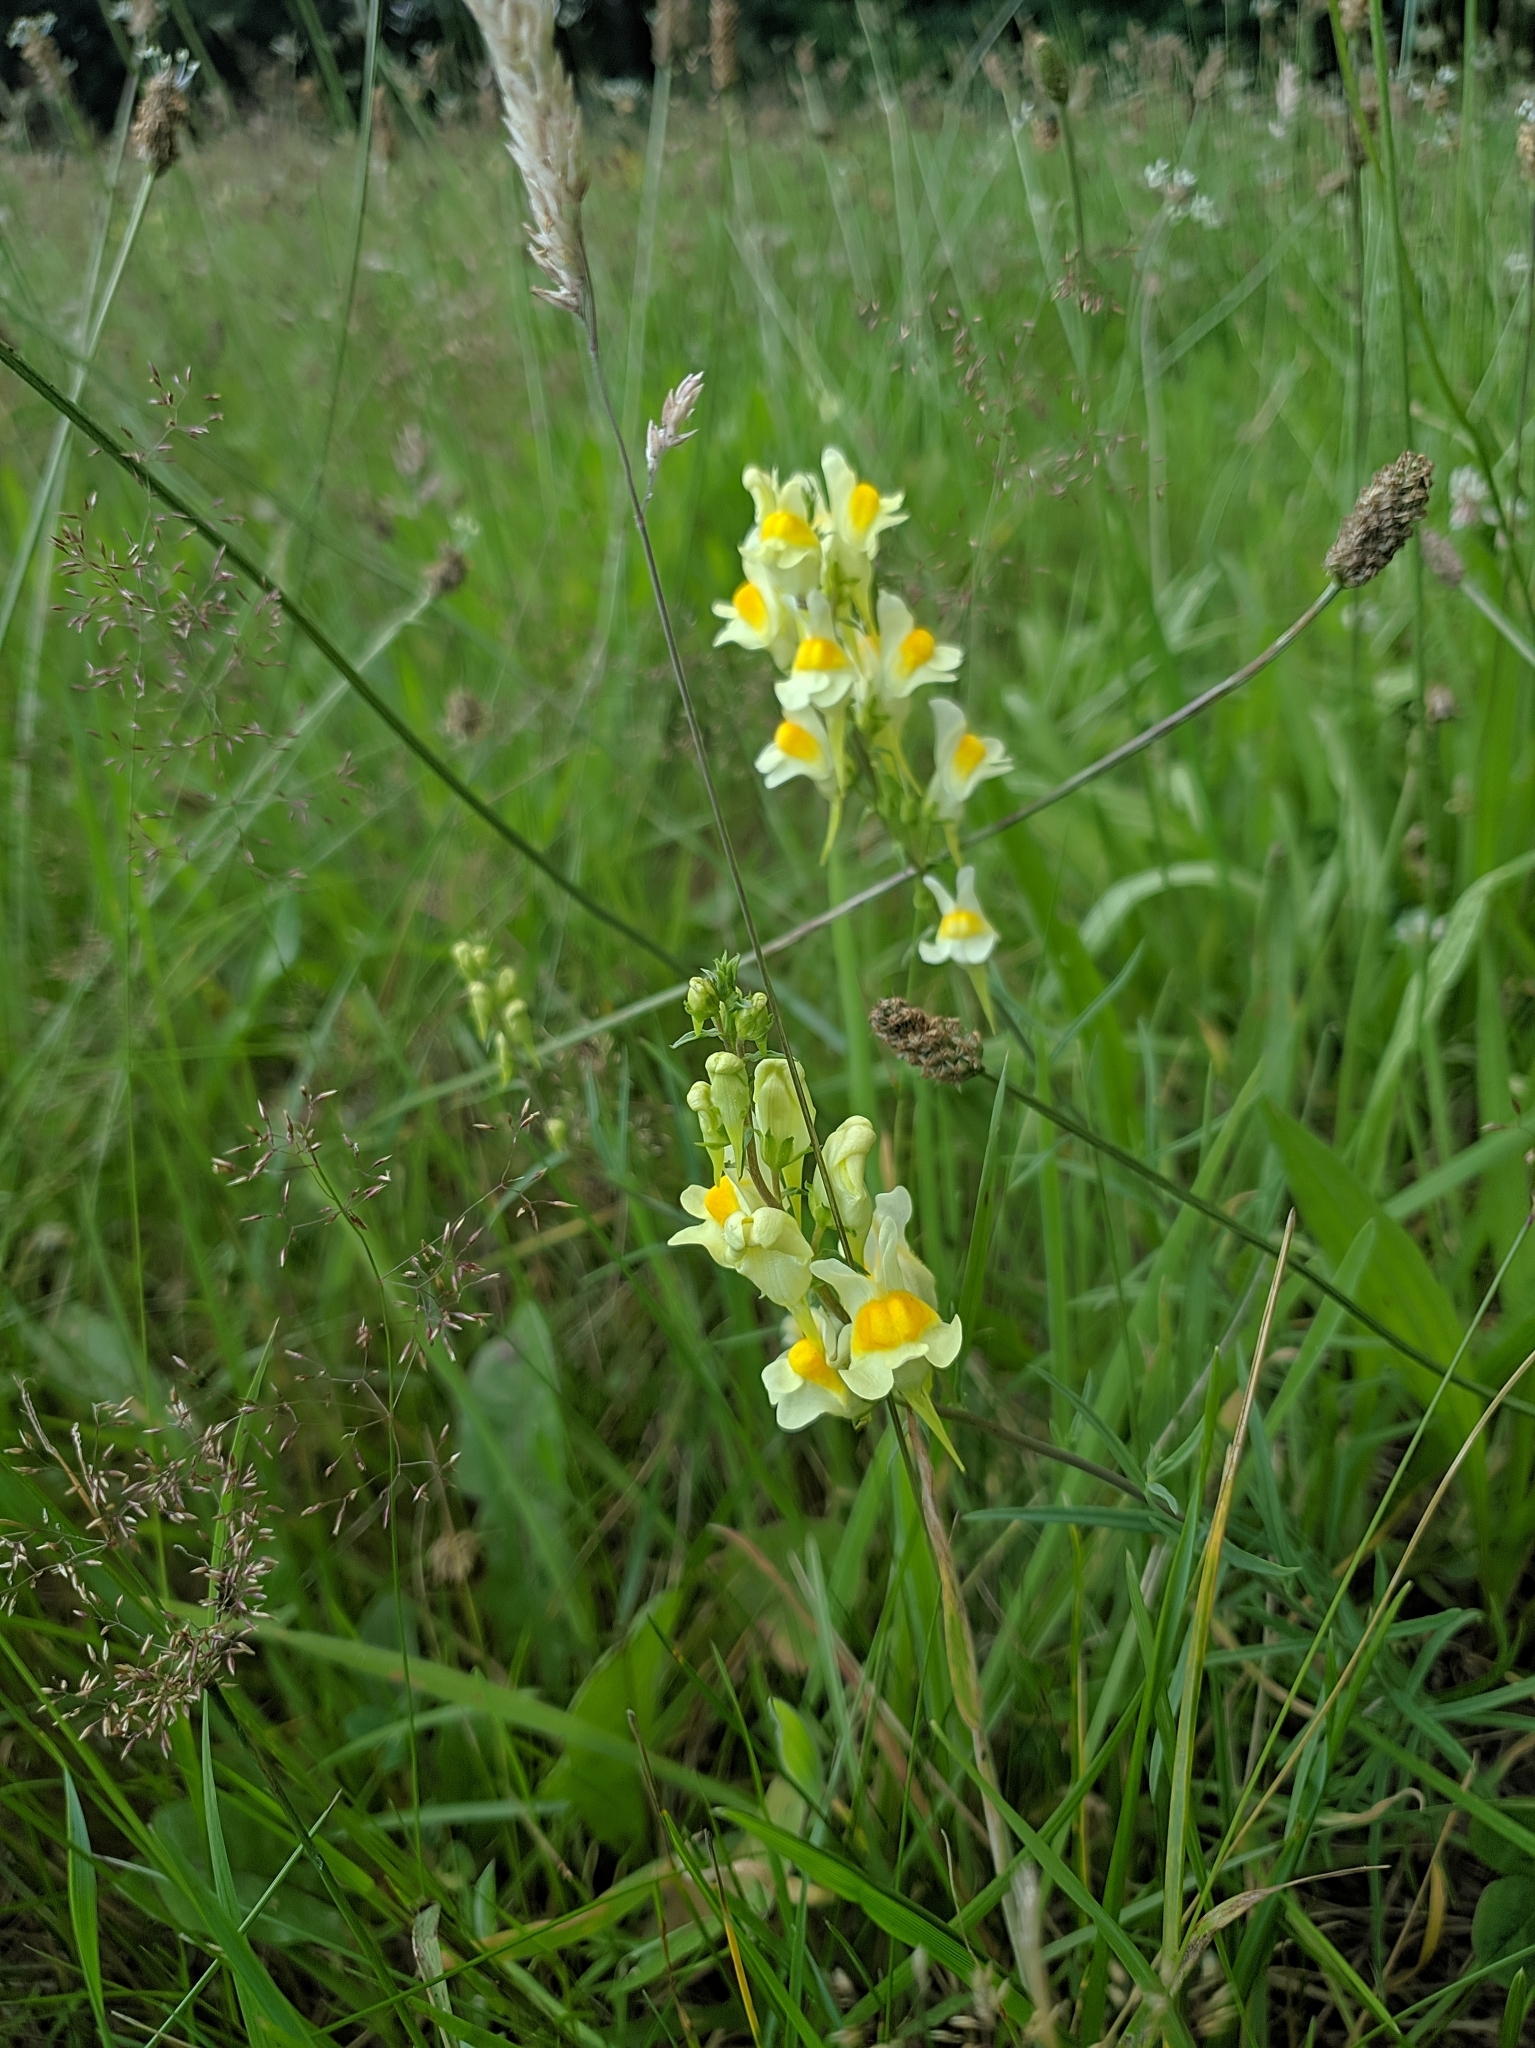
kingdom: Plantae
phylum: Tracheophyta
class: Magnoliopsida
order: Lamiales
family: Plantaginaceae
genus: Linaria
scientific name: Linaria vulgaris
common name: Butter and eggs
